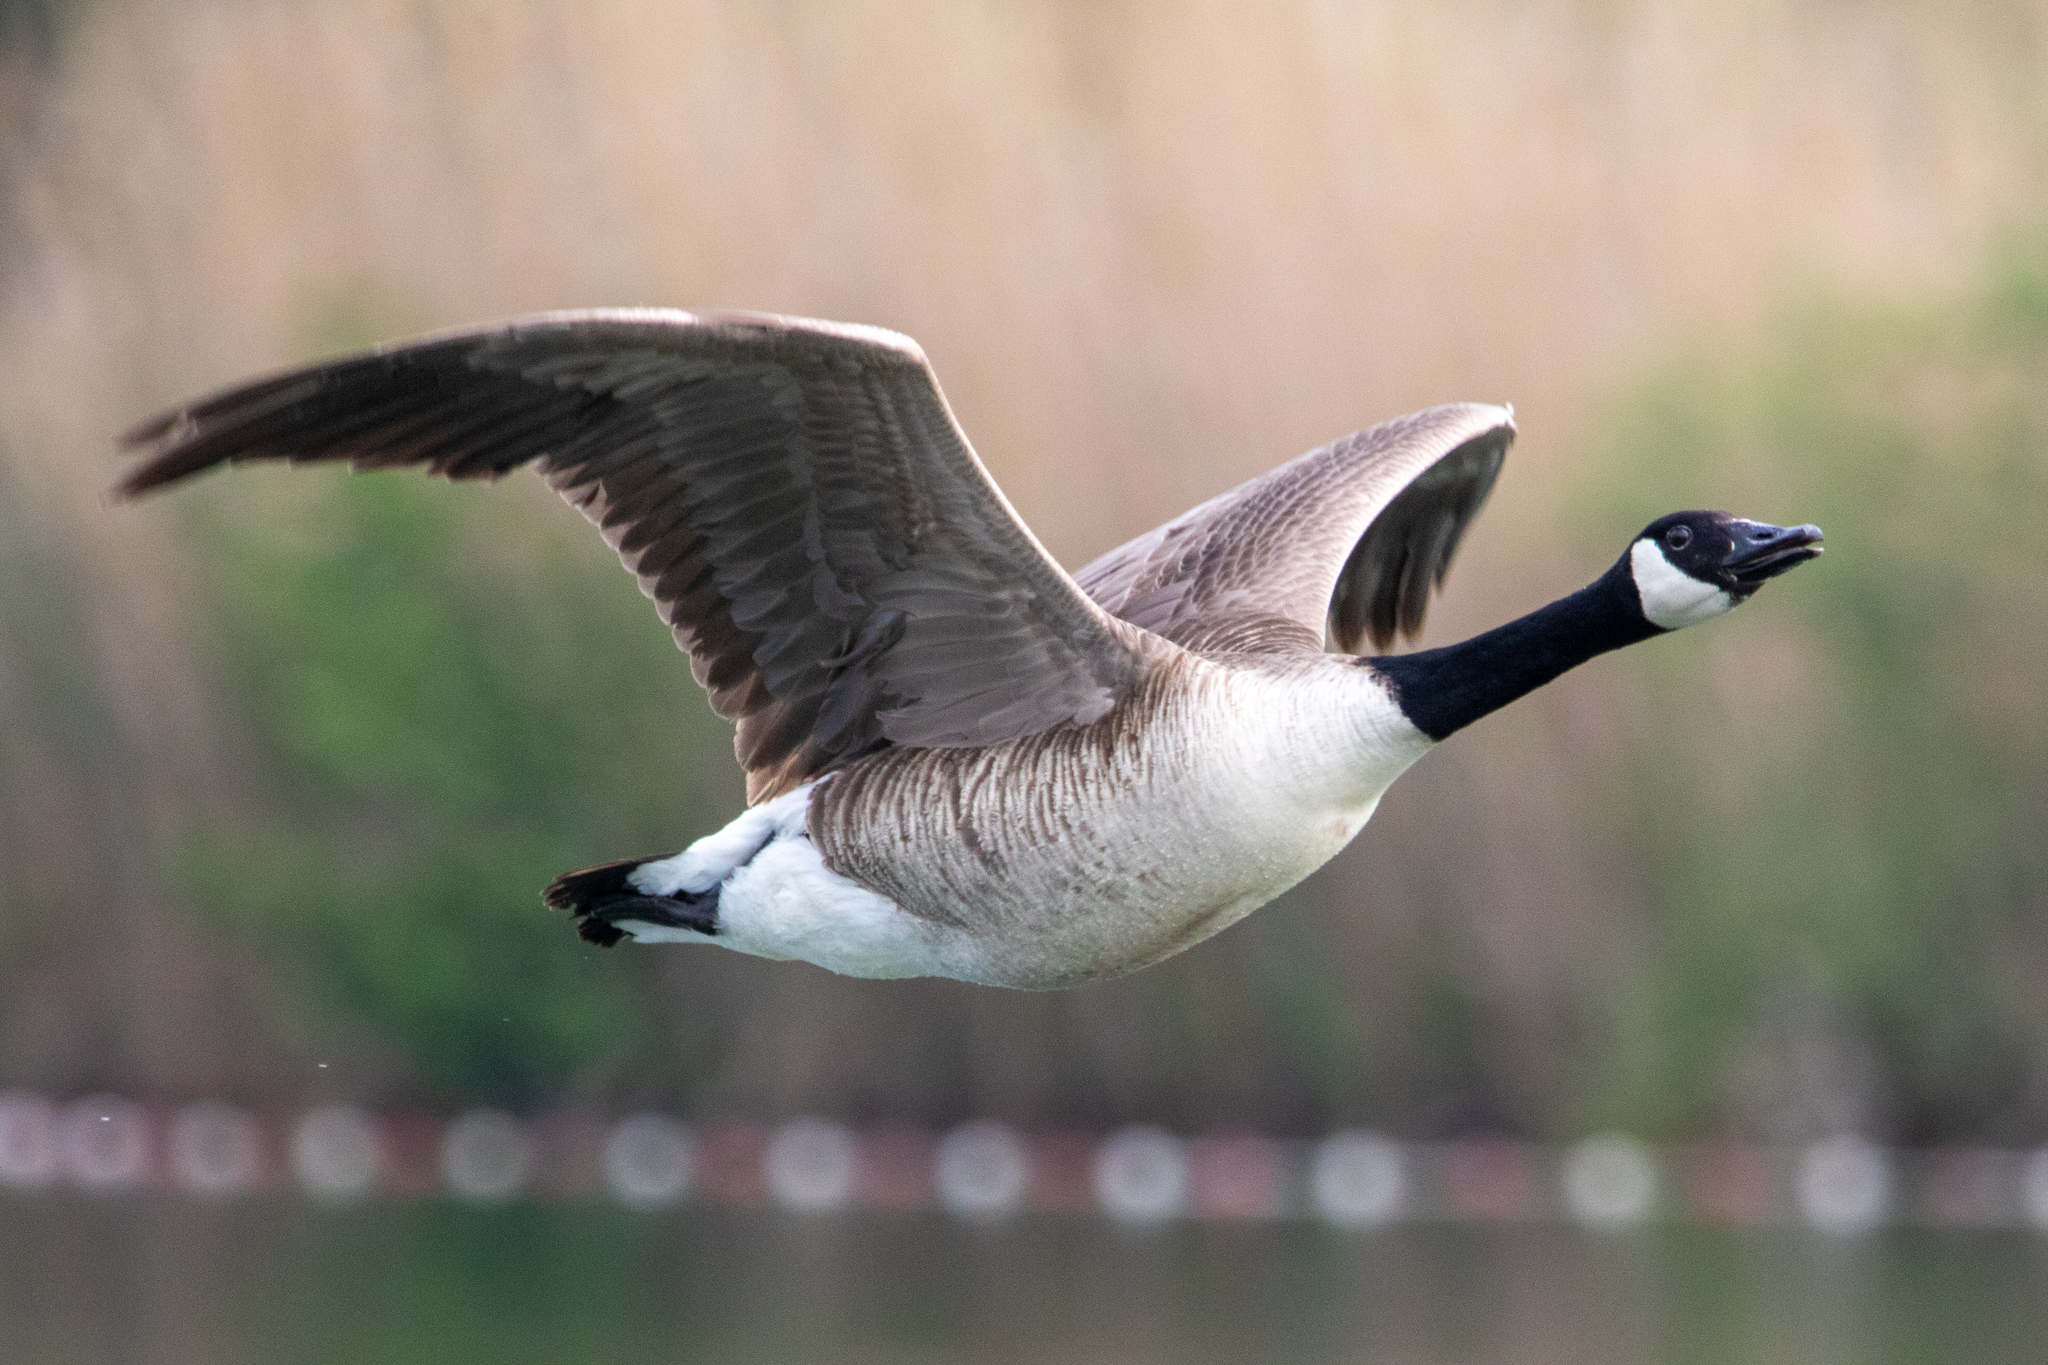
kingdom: Animalia
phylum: Chordata
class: Aves
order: Anseriformes
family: Anatidae
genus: Branta
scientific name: Branta canadensis
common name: Canada goose
